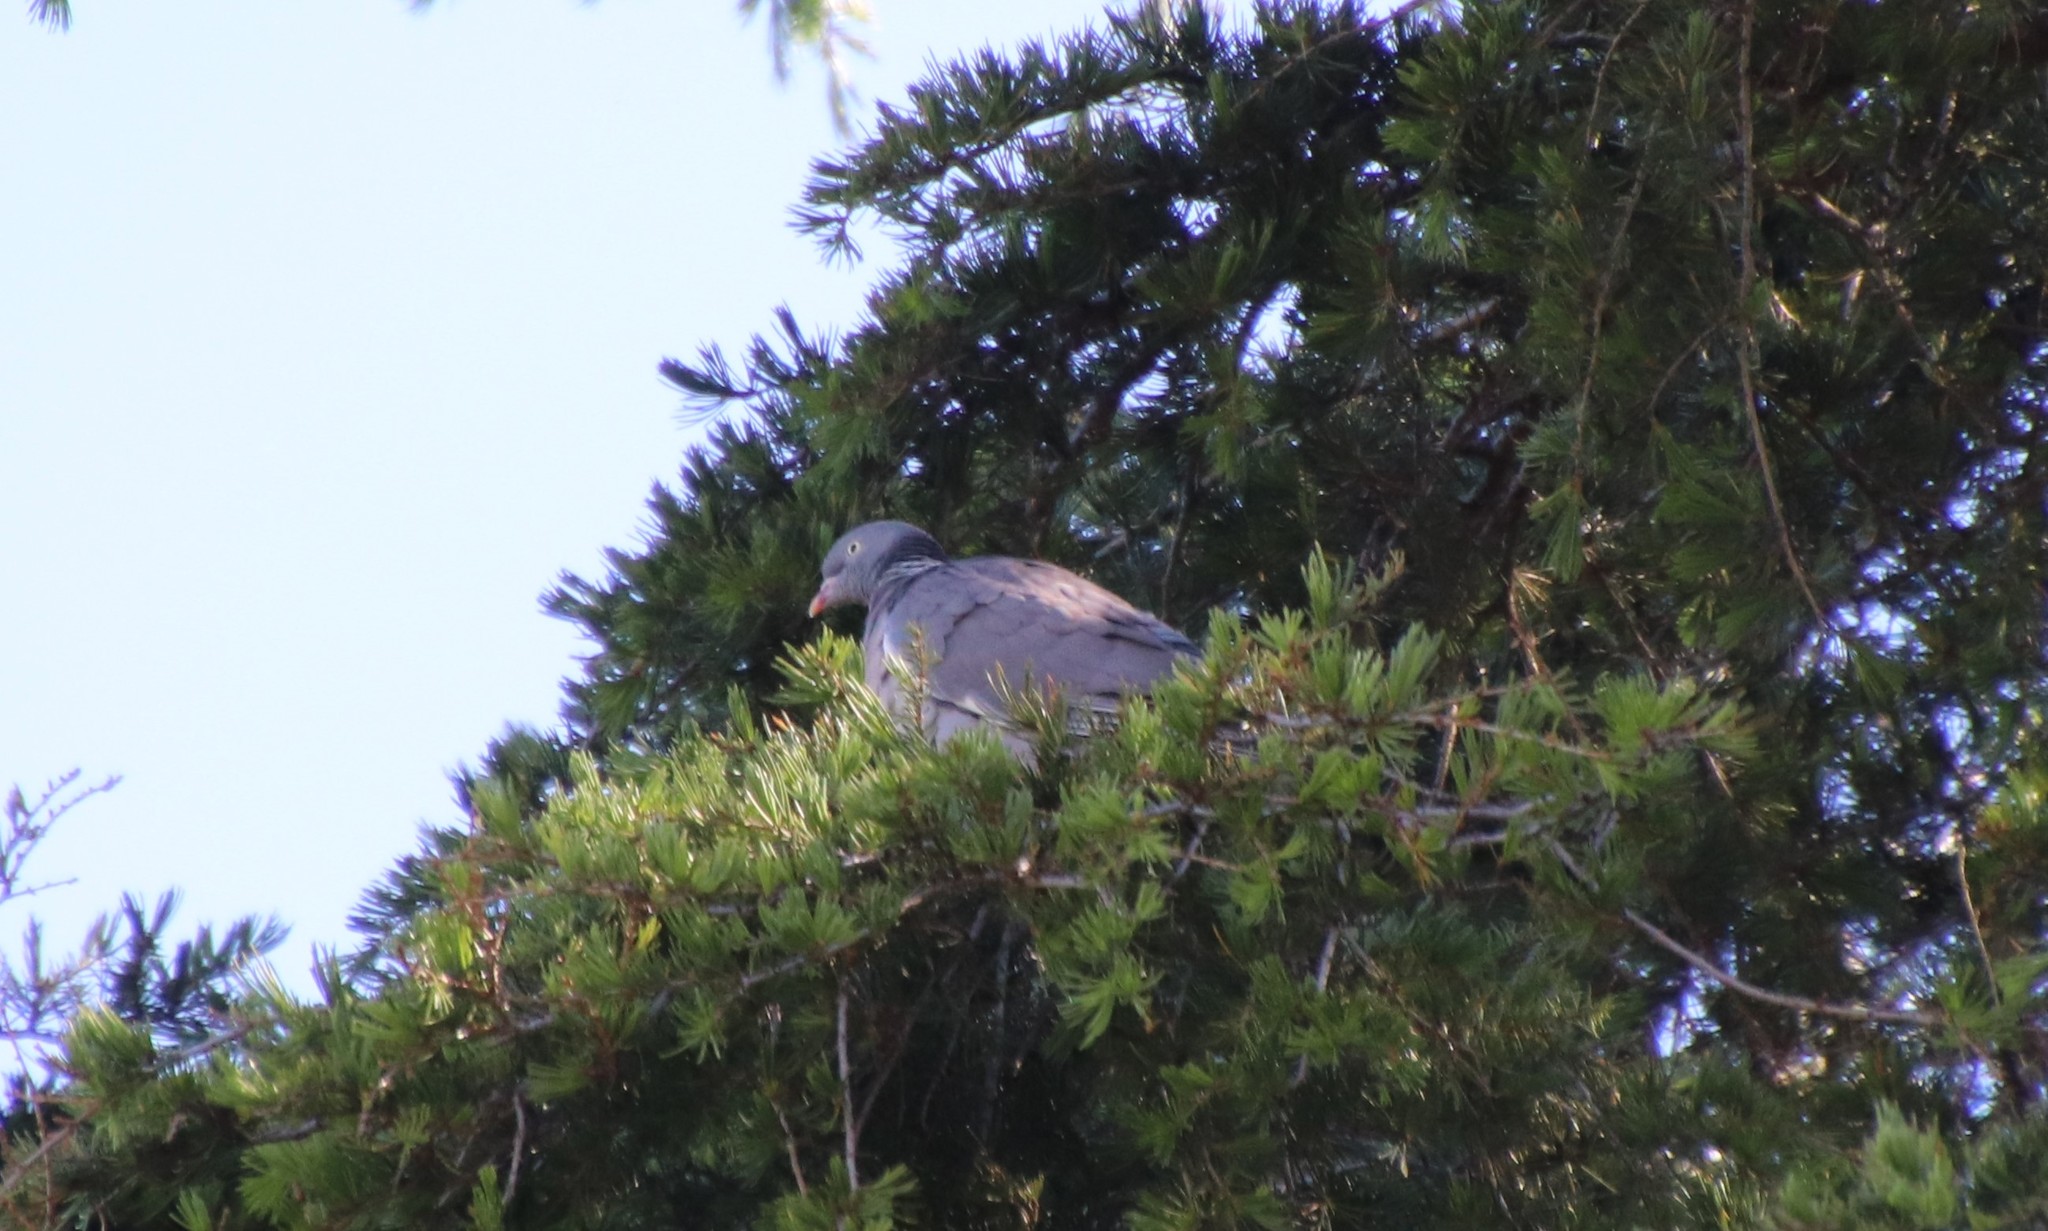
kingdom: Animalia
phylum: Chordata
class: Aves
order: Columbiformes
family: Columbidae
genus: Columba
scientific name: Columba palumbus
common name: Common wood pigeon
